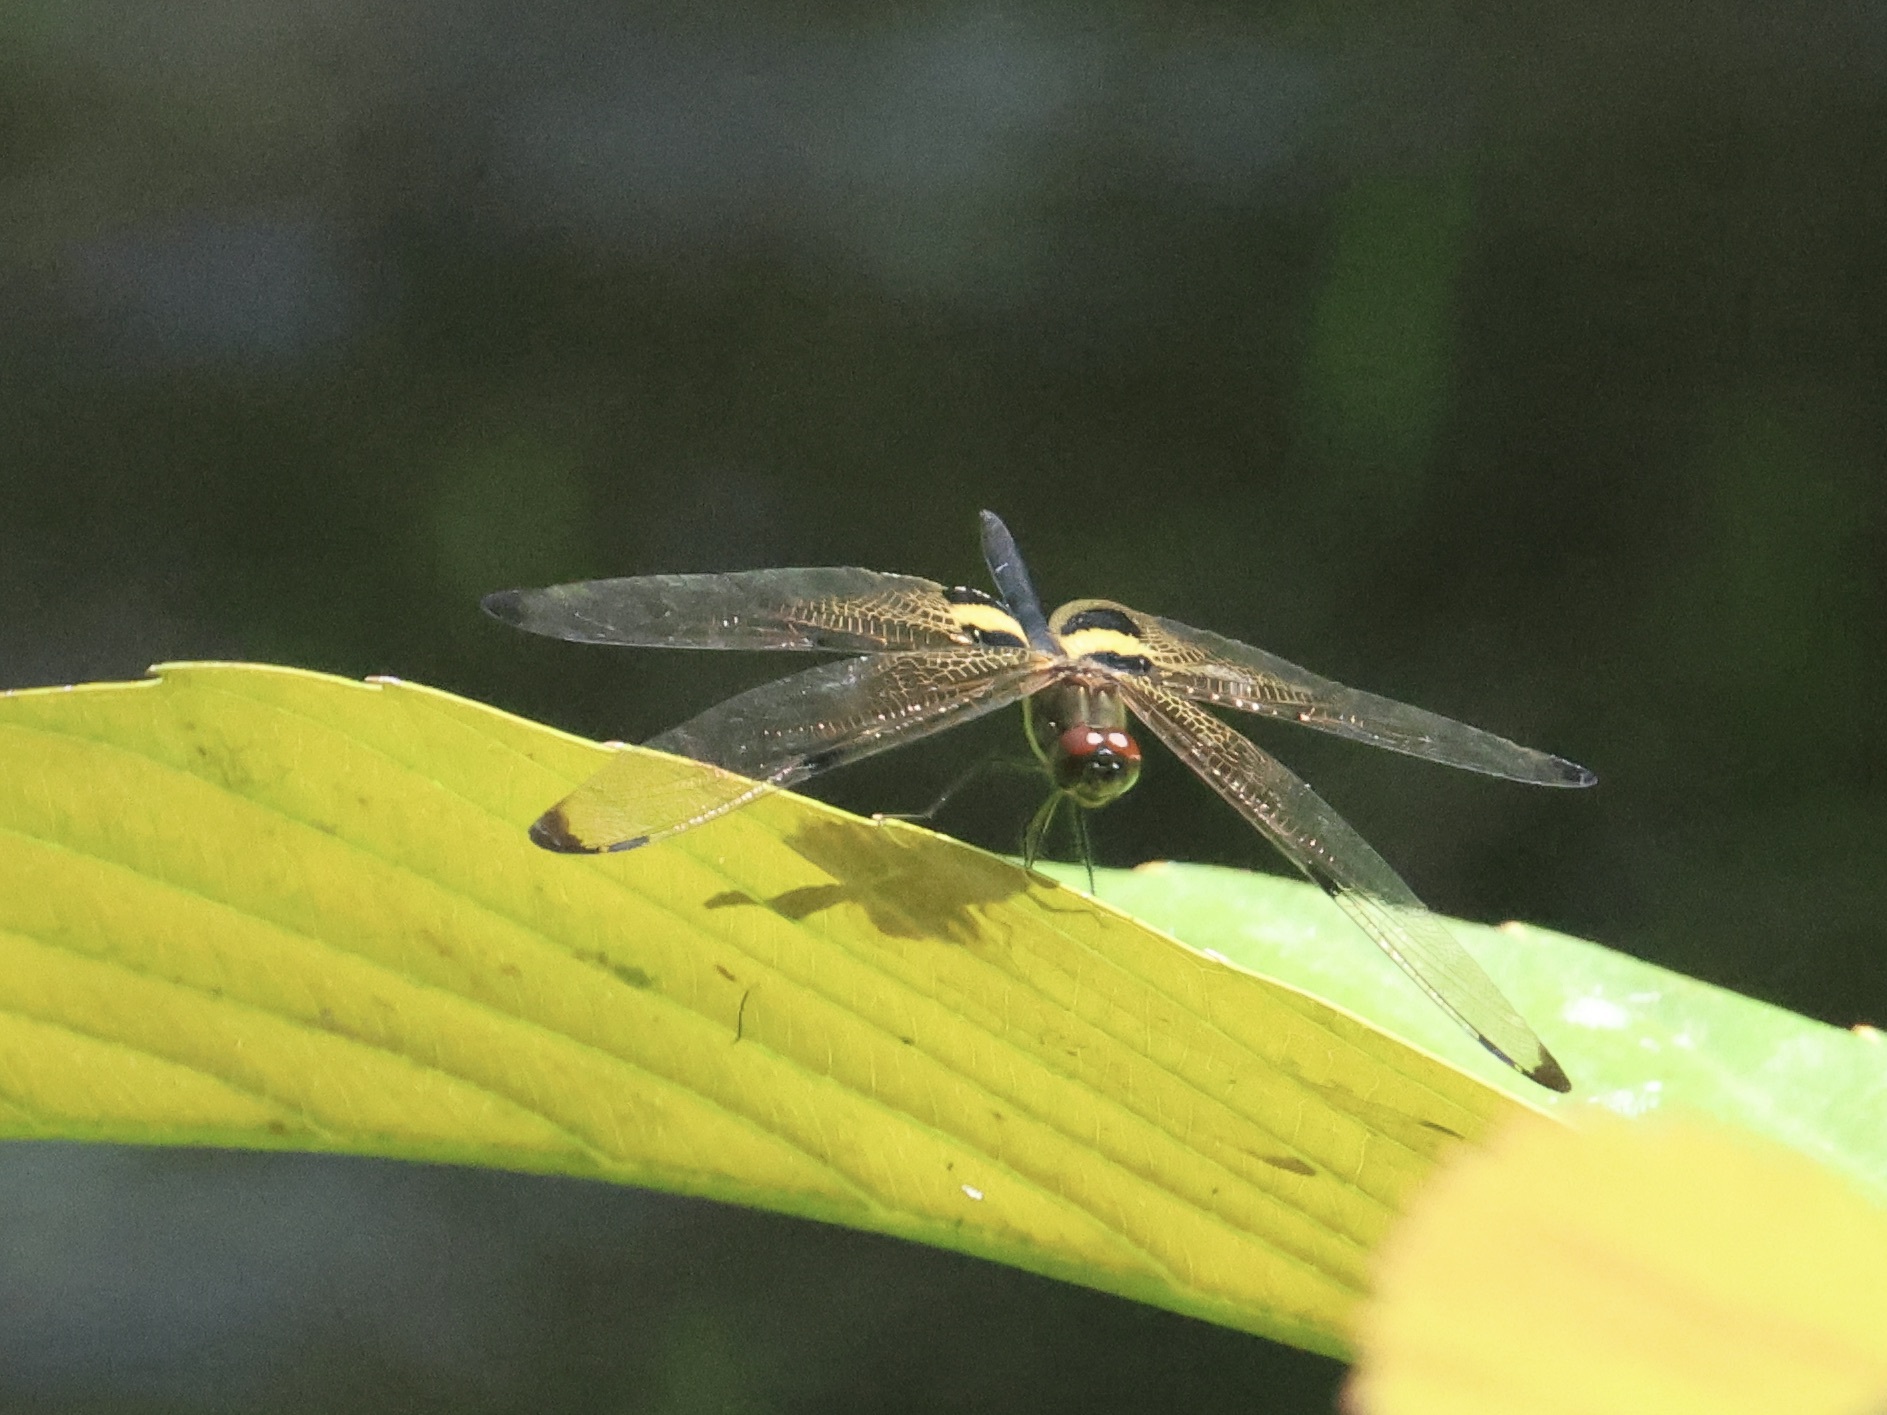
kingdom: Animalia
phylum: Arthropoda
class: Insecta
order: Odonata
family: Libellulidae
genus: Rhyothemis
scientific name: Rhyothemis phyllis
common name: Yellow-barred flutterer
